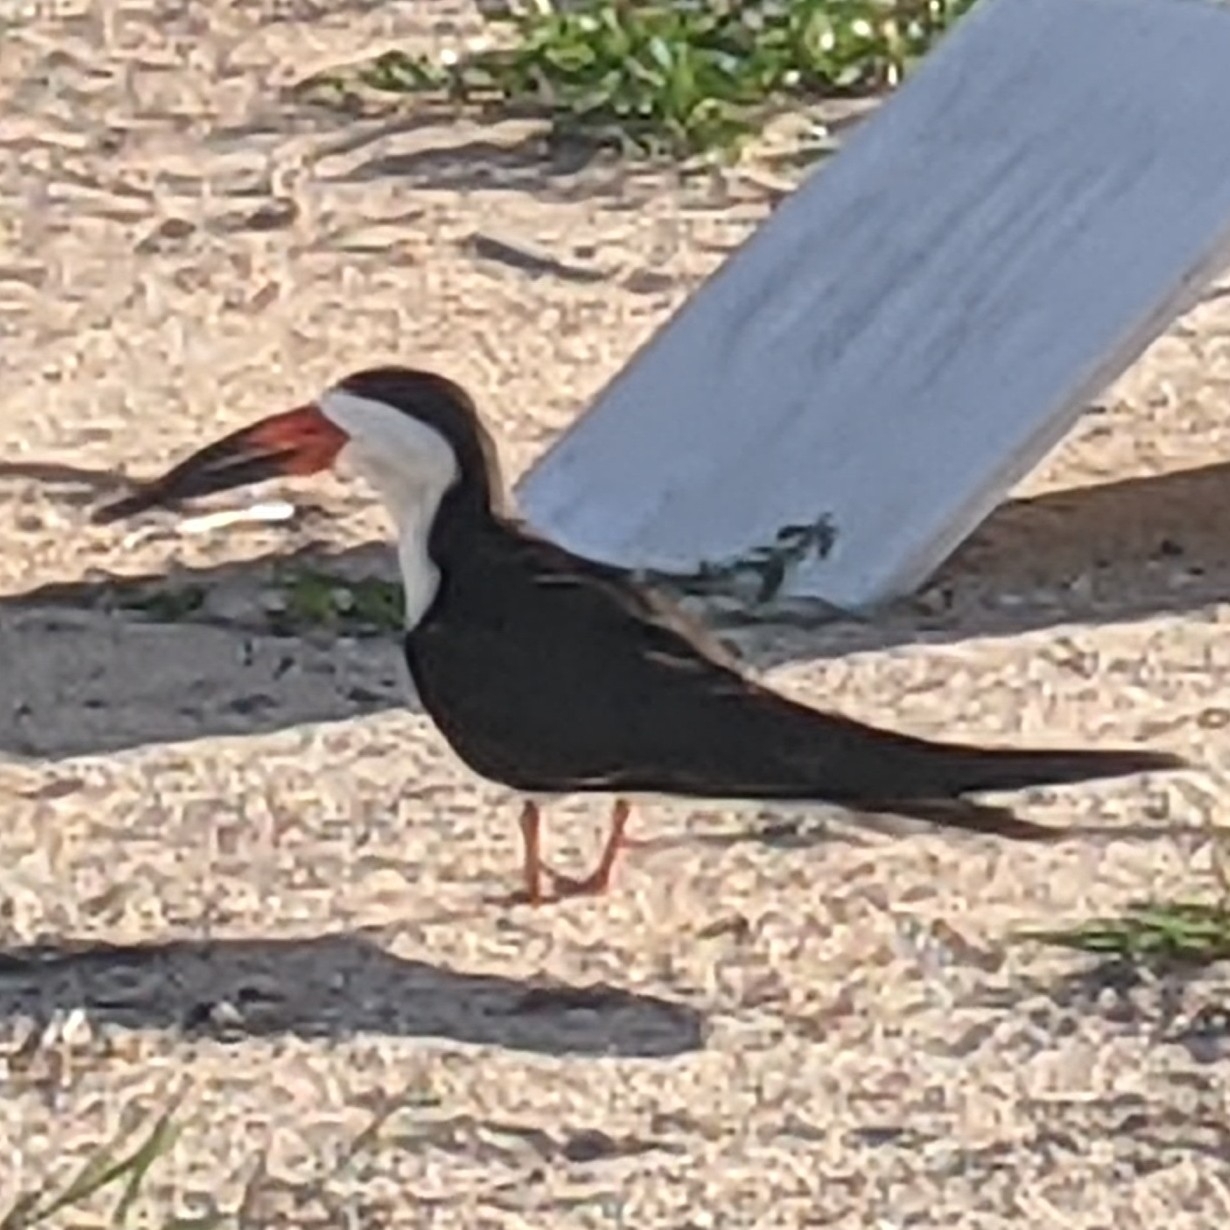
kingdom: Animalia
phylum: Chordata
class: Aves
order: Charadriiformes
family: Laridae
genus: Rynchops
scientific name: Rynchops niger
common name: Black skimmer
